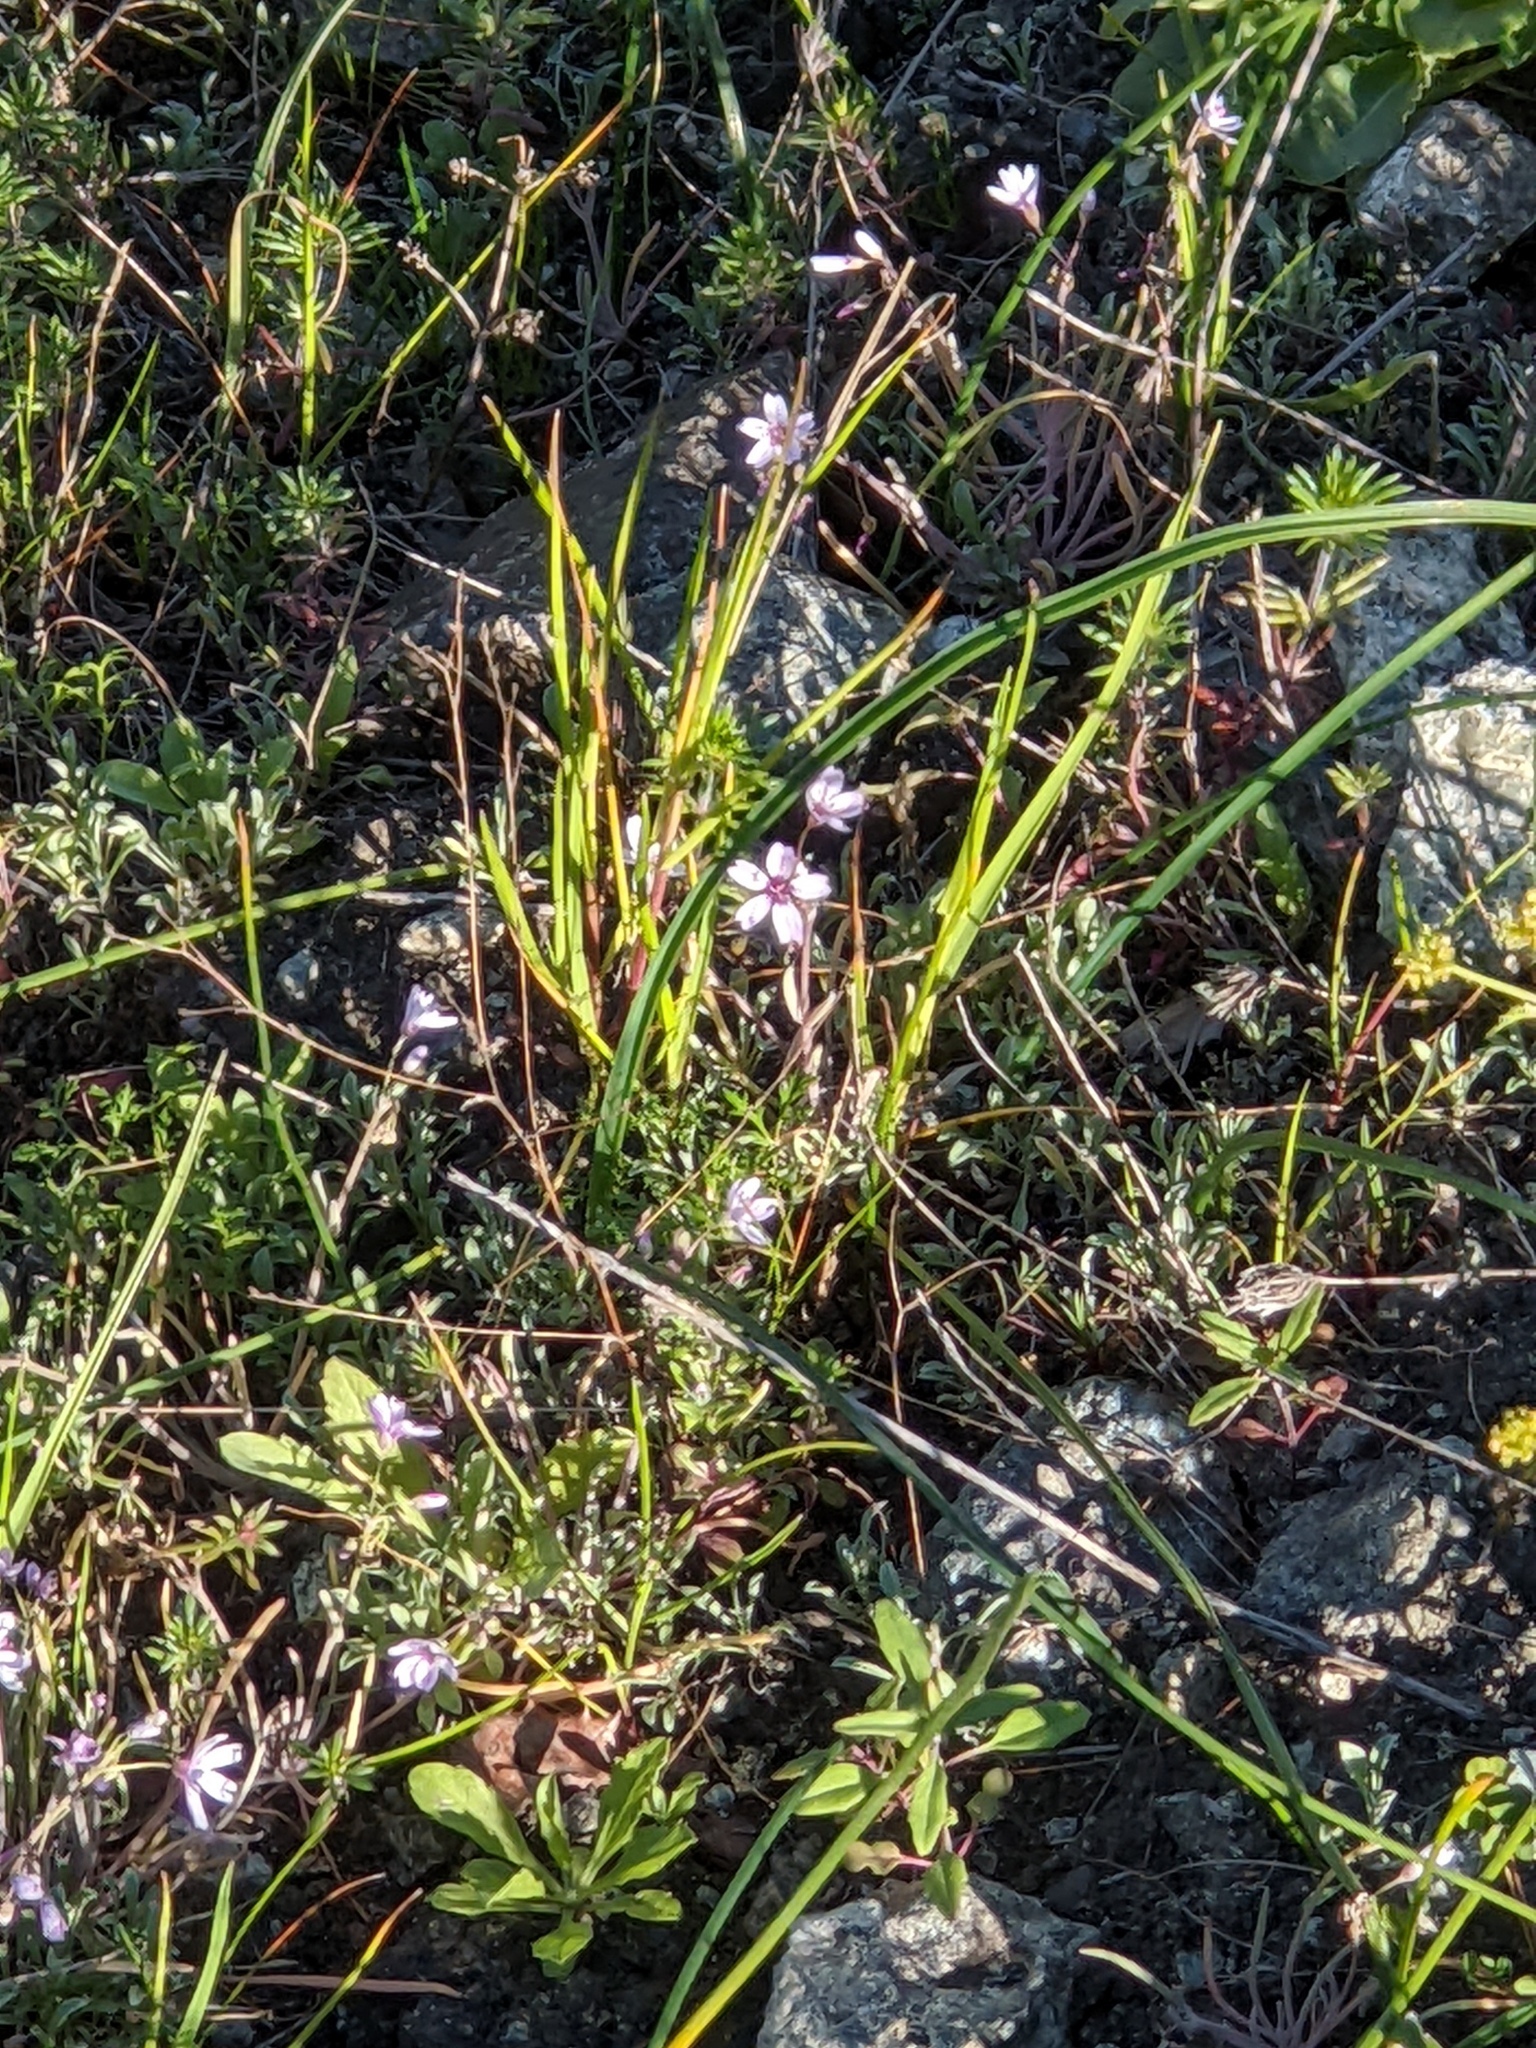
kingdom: Plantae
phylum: Tracheophyta
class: Magnoliopsida
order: Caryophyllales
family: Montiaceae
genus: Claytonia
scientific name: Claytonia gypsophiloides
